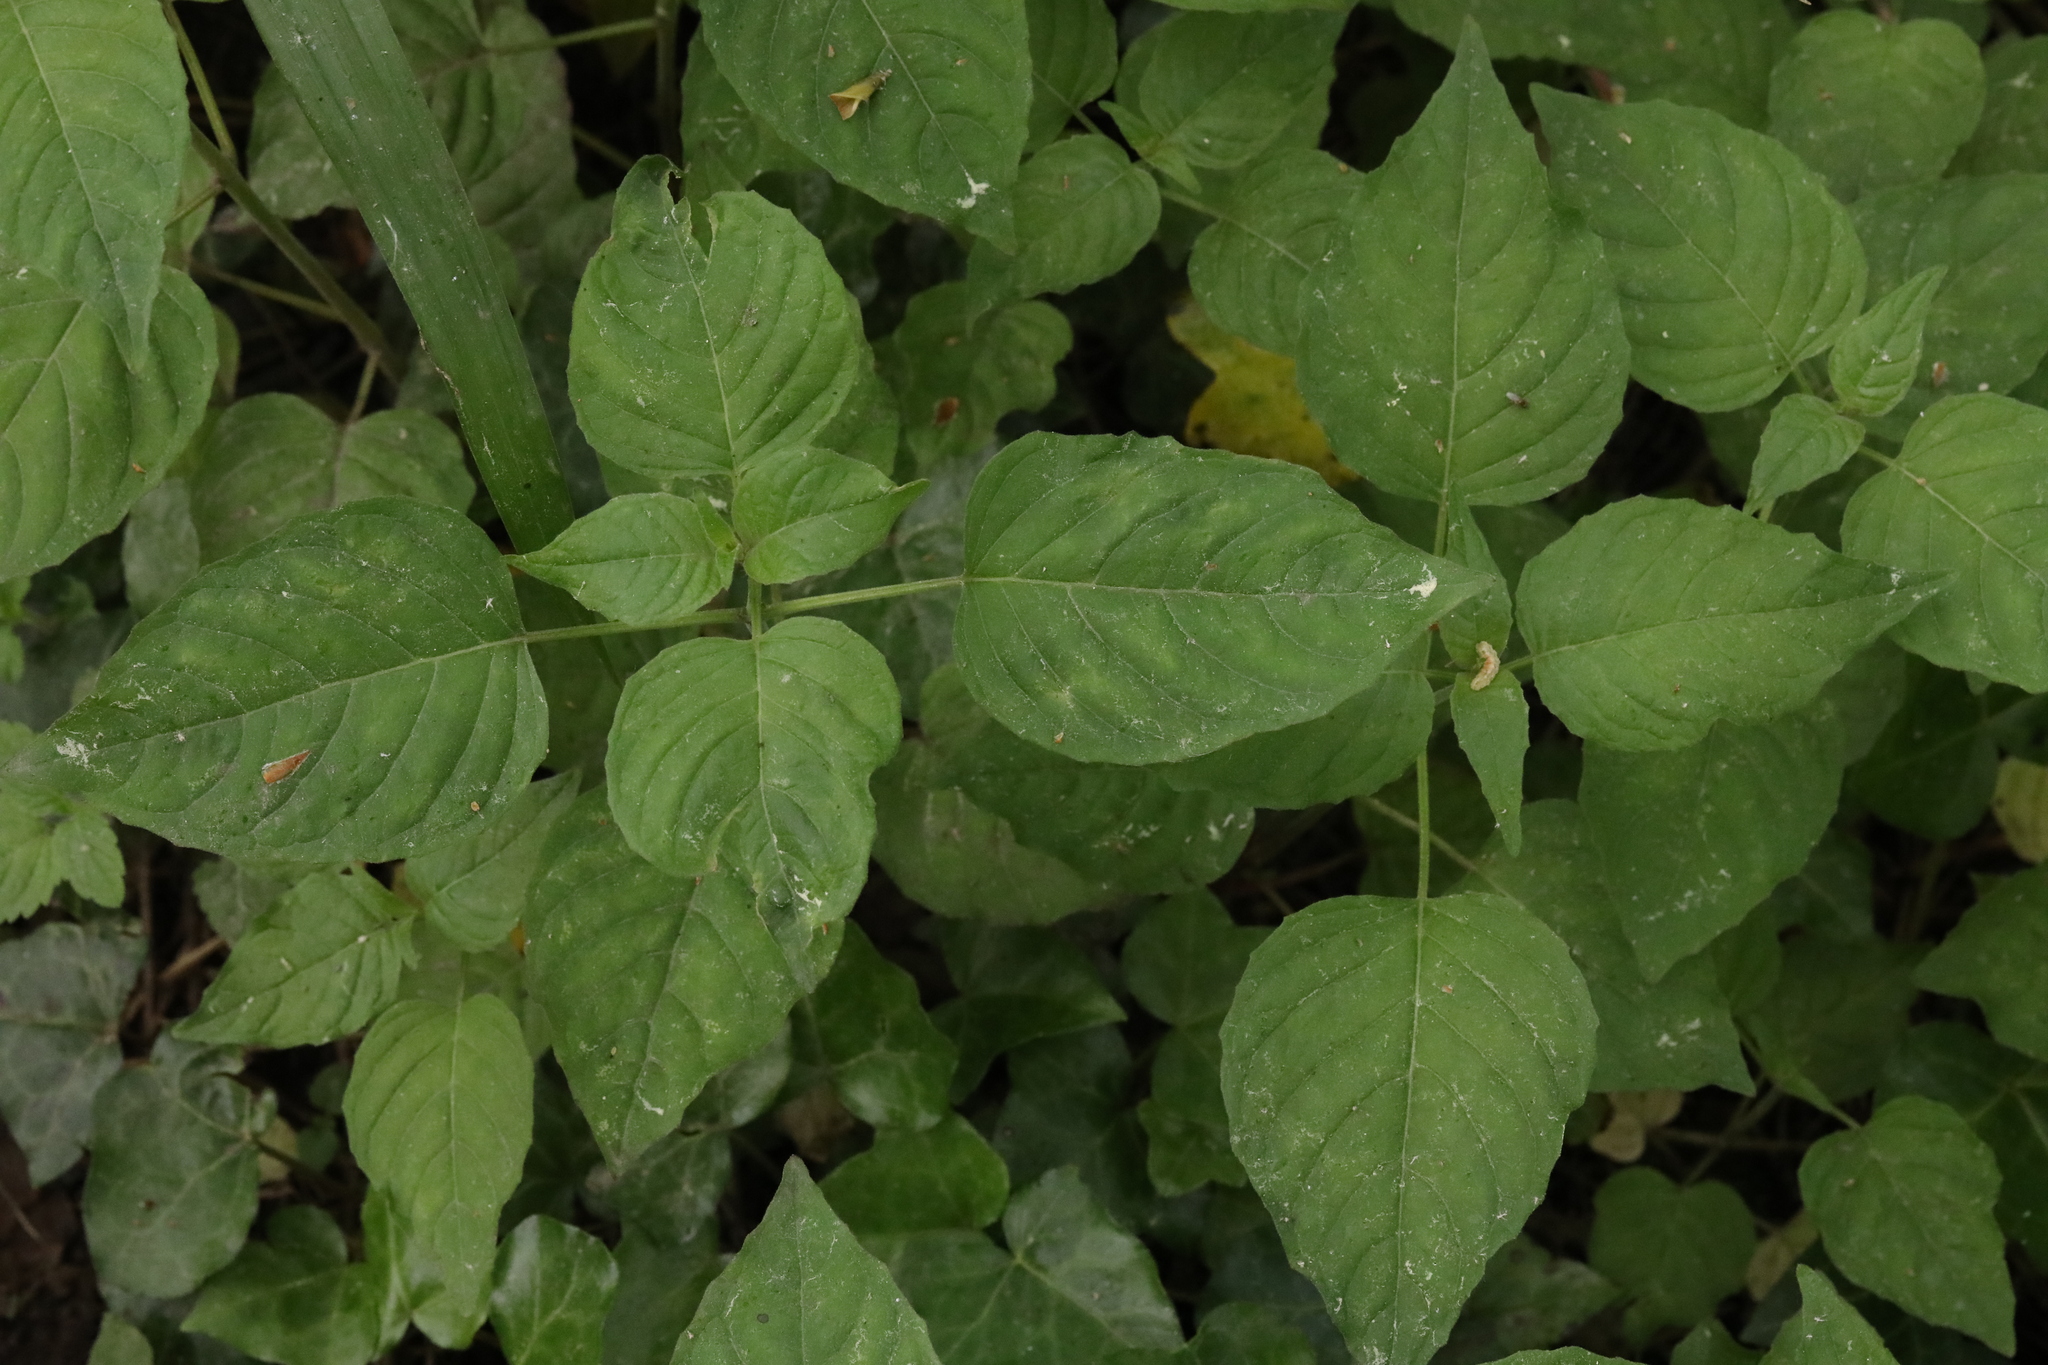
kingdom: Plantae
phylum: Tracheophyta
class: Magnoliopsida
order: Myrtales
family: Onagraceae
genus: Circaea
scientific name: Circaea lutetiana
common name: Enchanter's-nightshade
